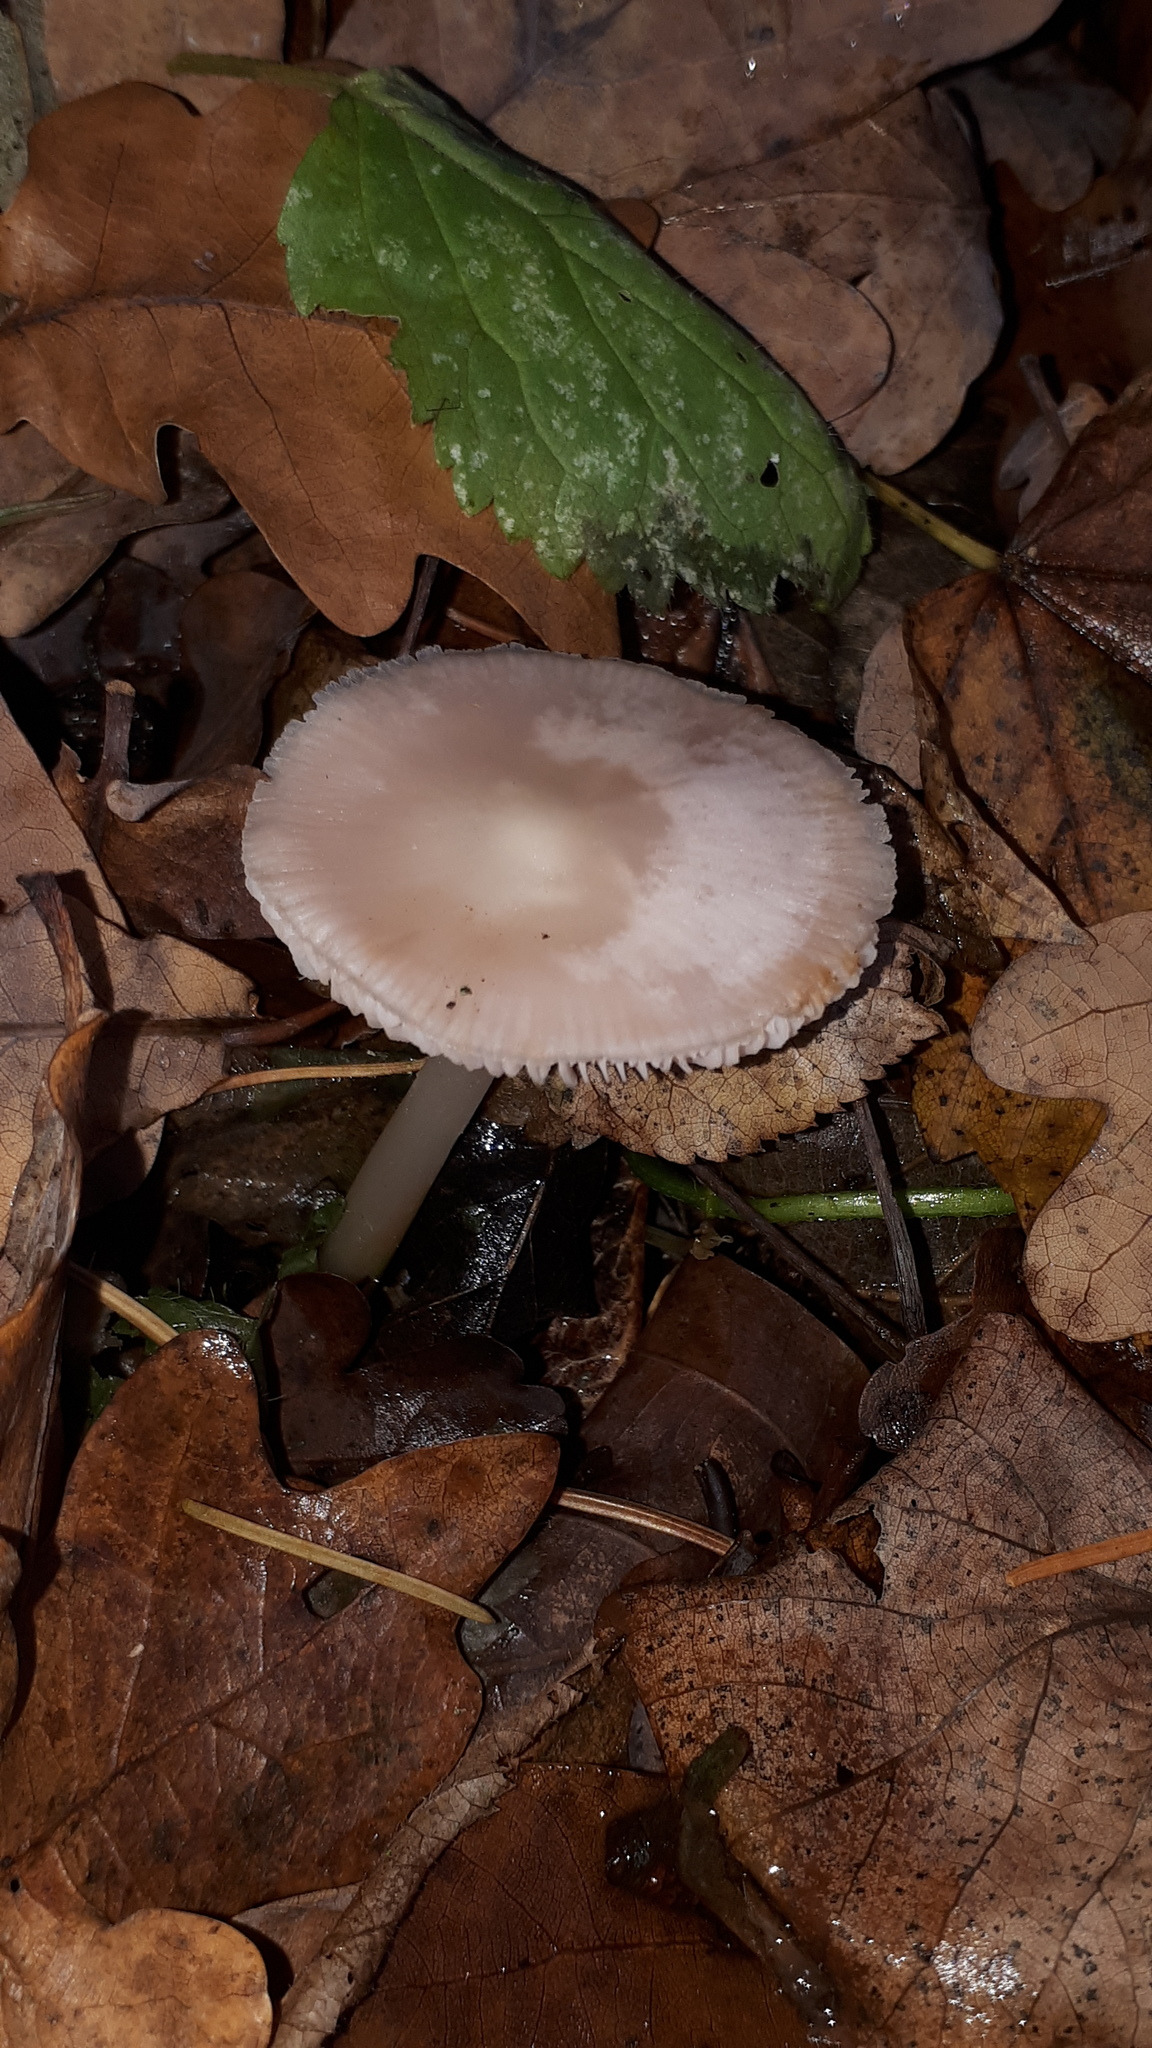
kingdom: Fungi
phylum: Basidiomycota
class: Agaricomycetes
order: Agaricales
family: Mycenaceae
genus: Mycena
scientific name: Mycena rosea
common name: Rosy bonnet
